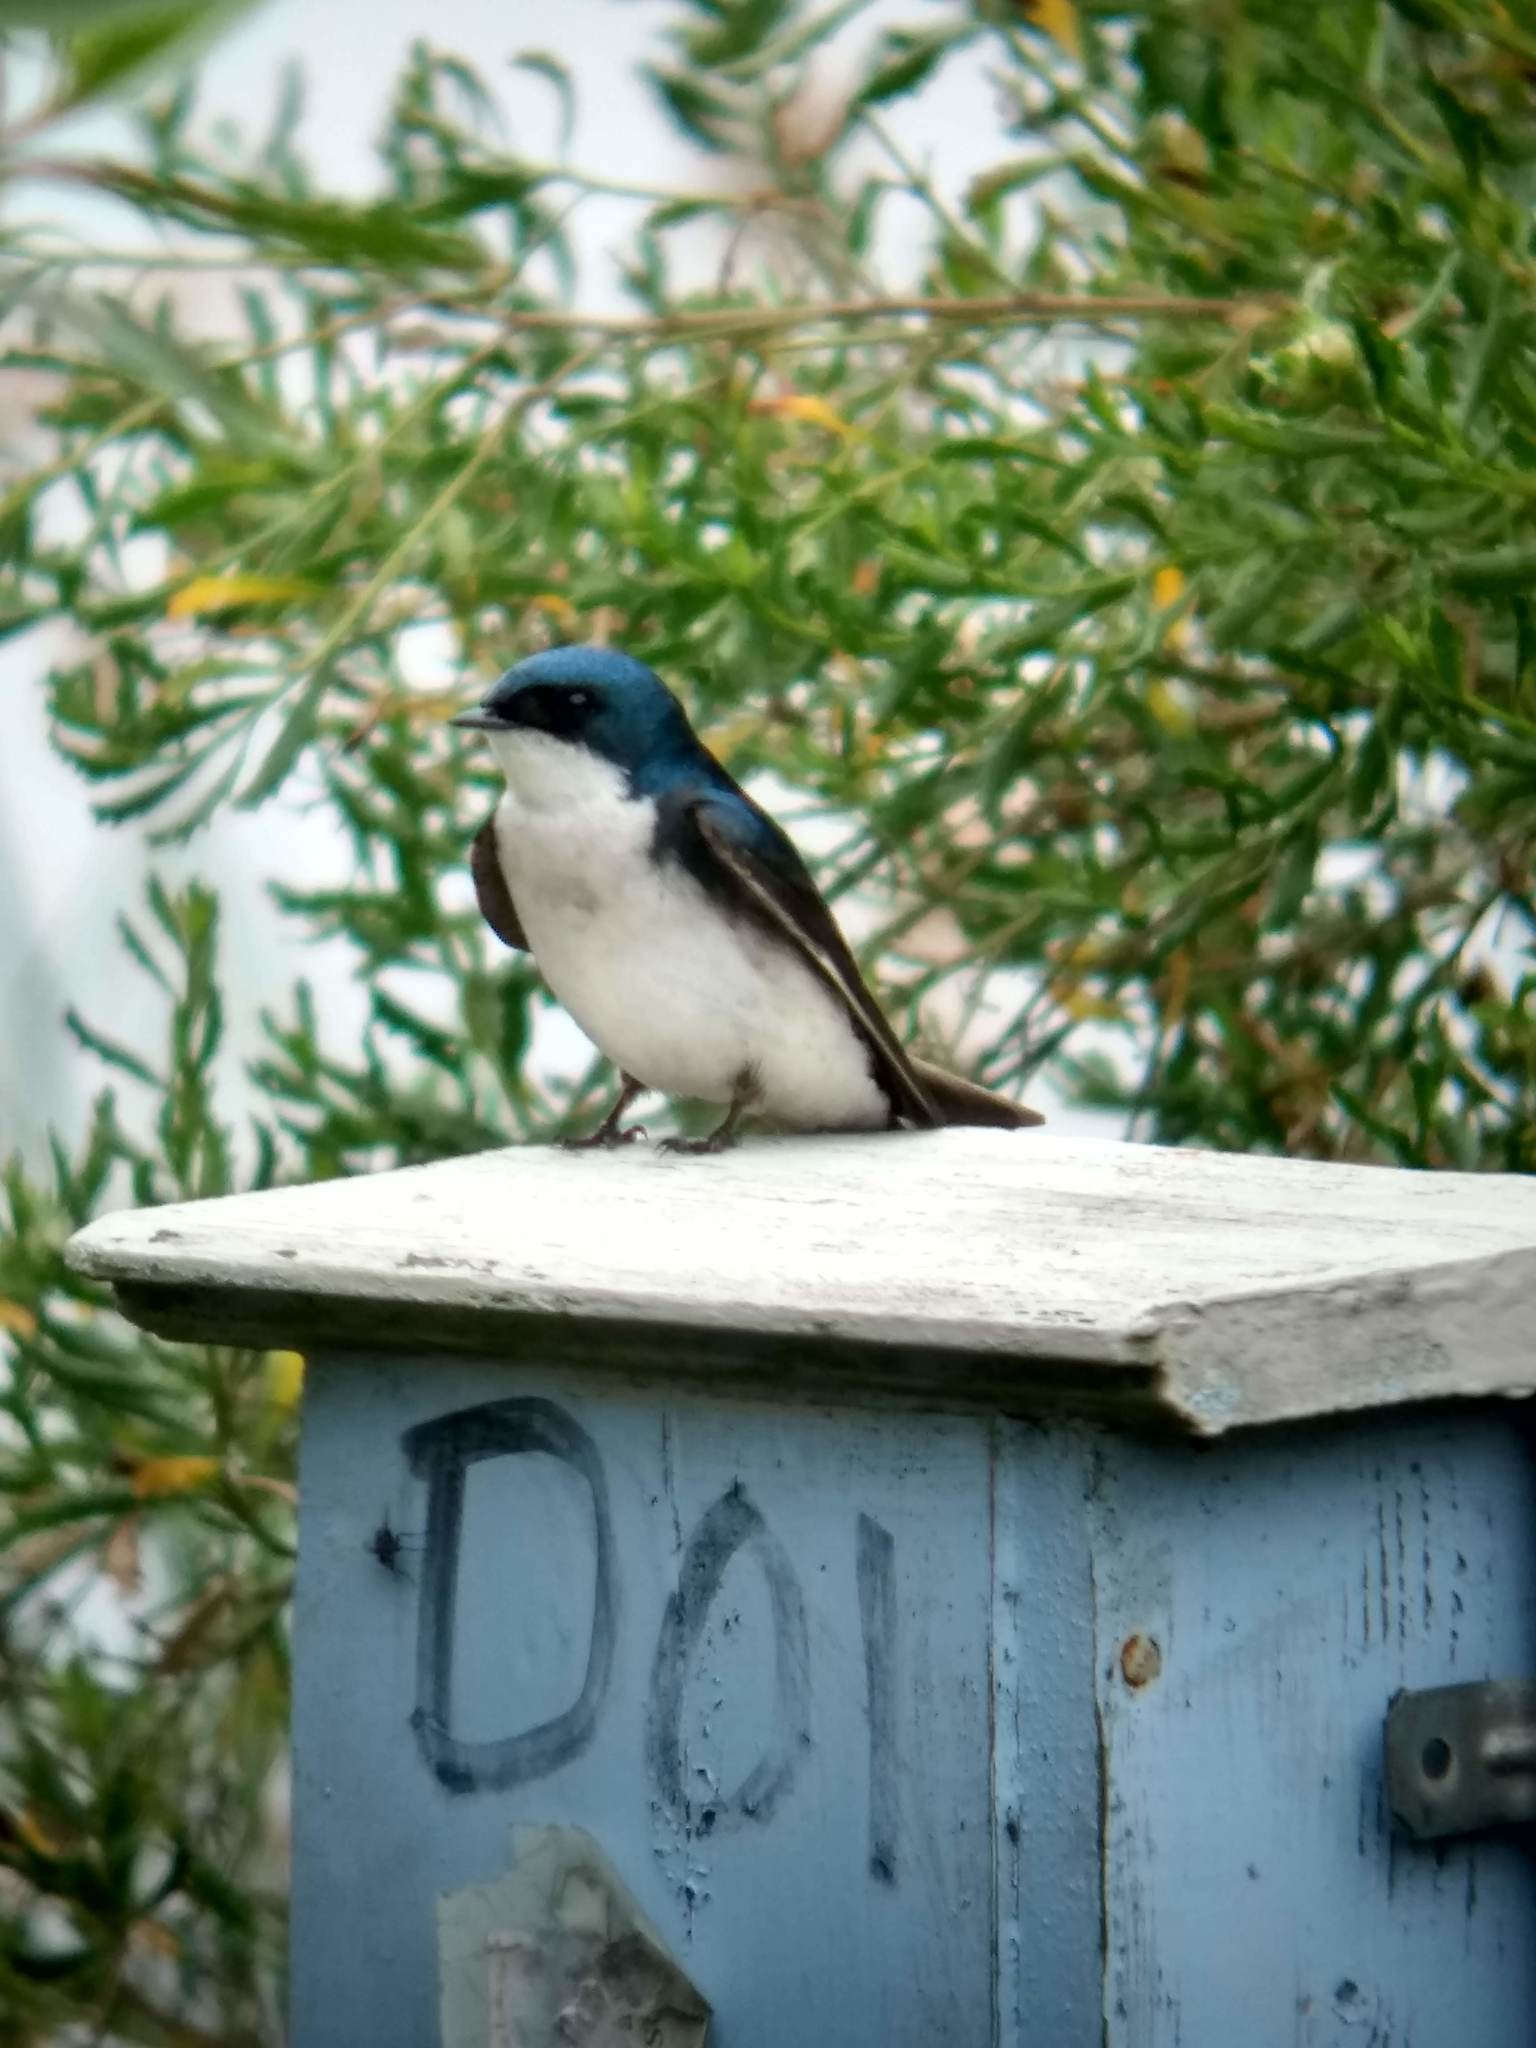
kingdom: Animalia
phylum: Chordata
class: Aves
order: Passeriformes
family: Hirundinidae
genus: Tachycineta
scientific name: Tachycineta bicolor
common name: Tree swallow
